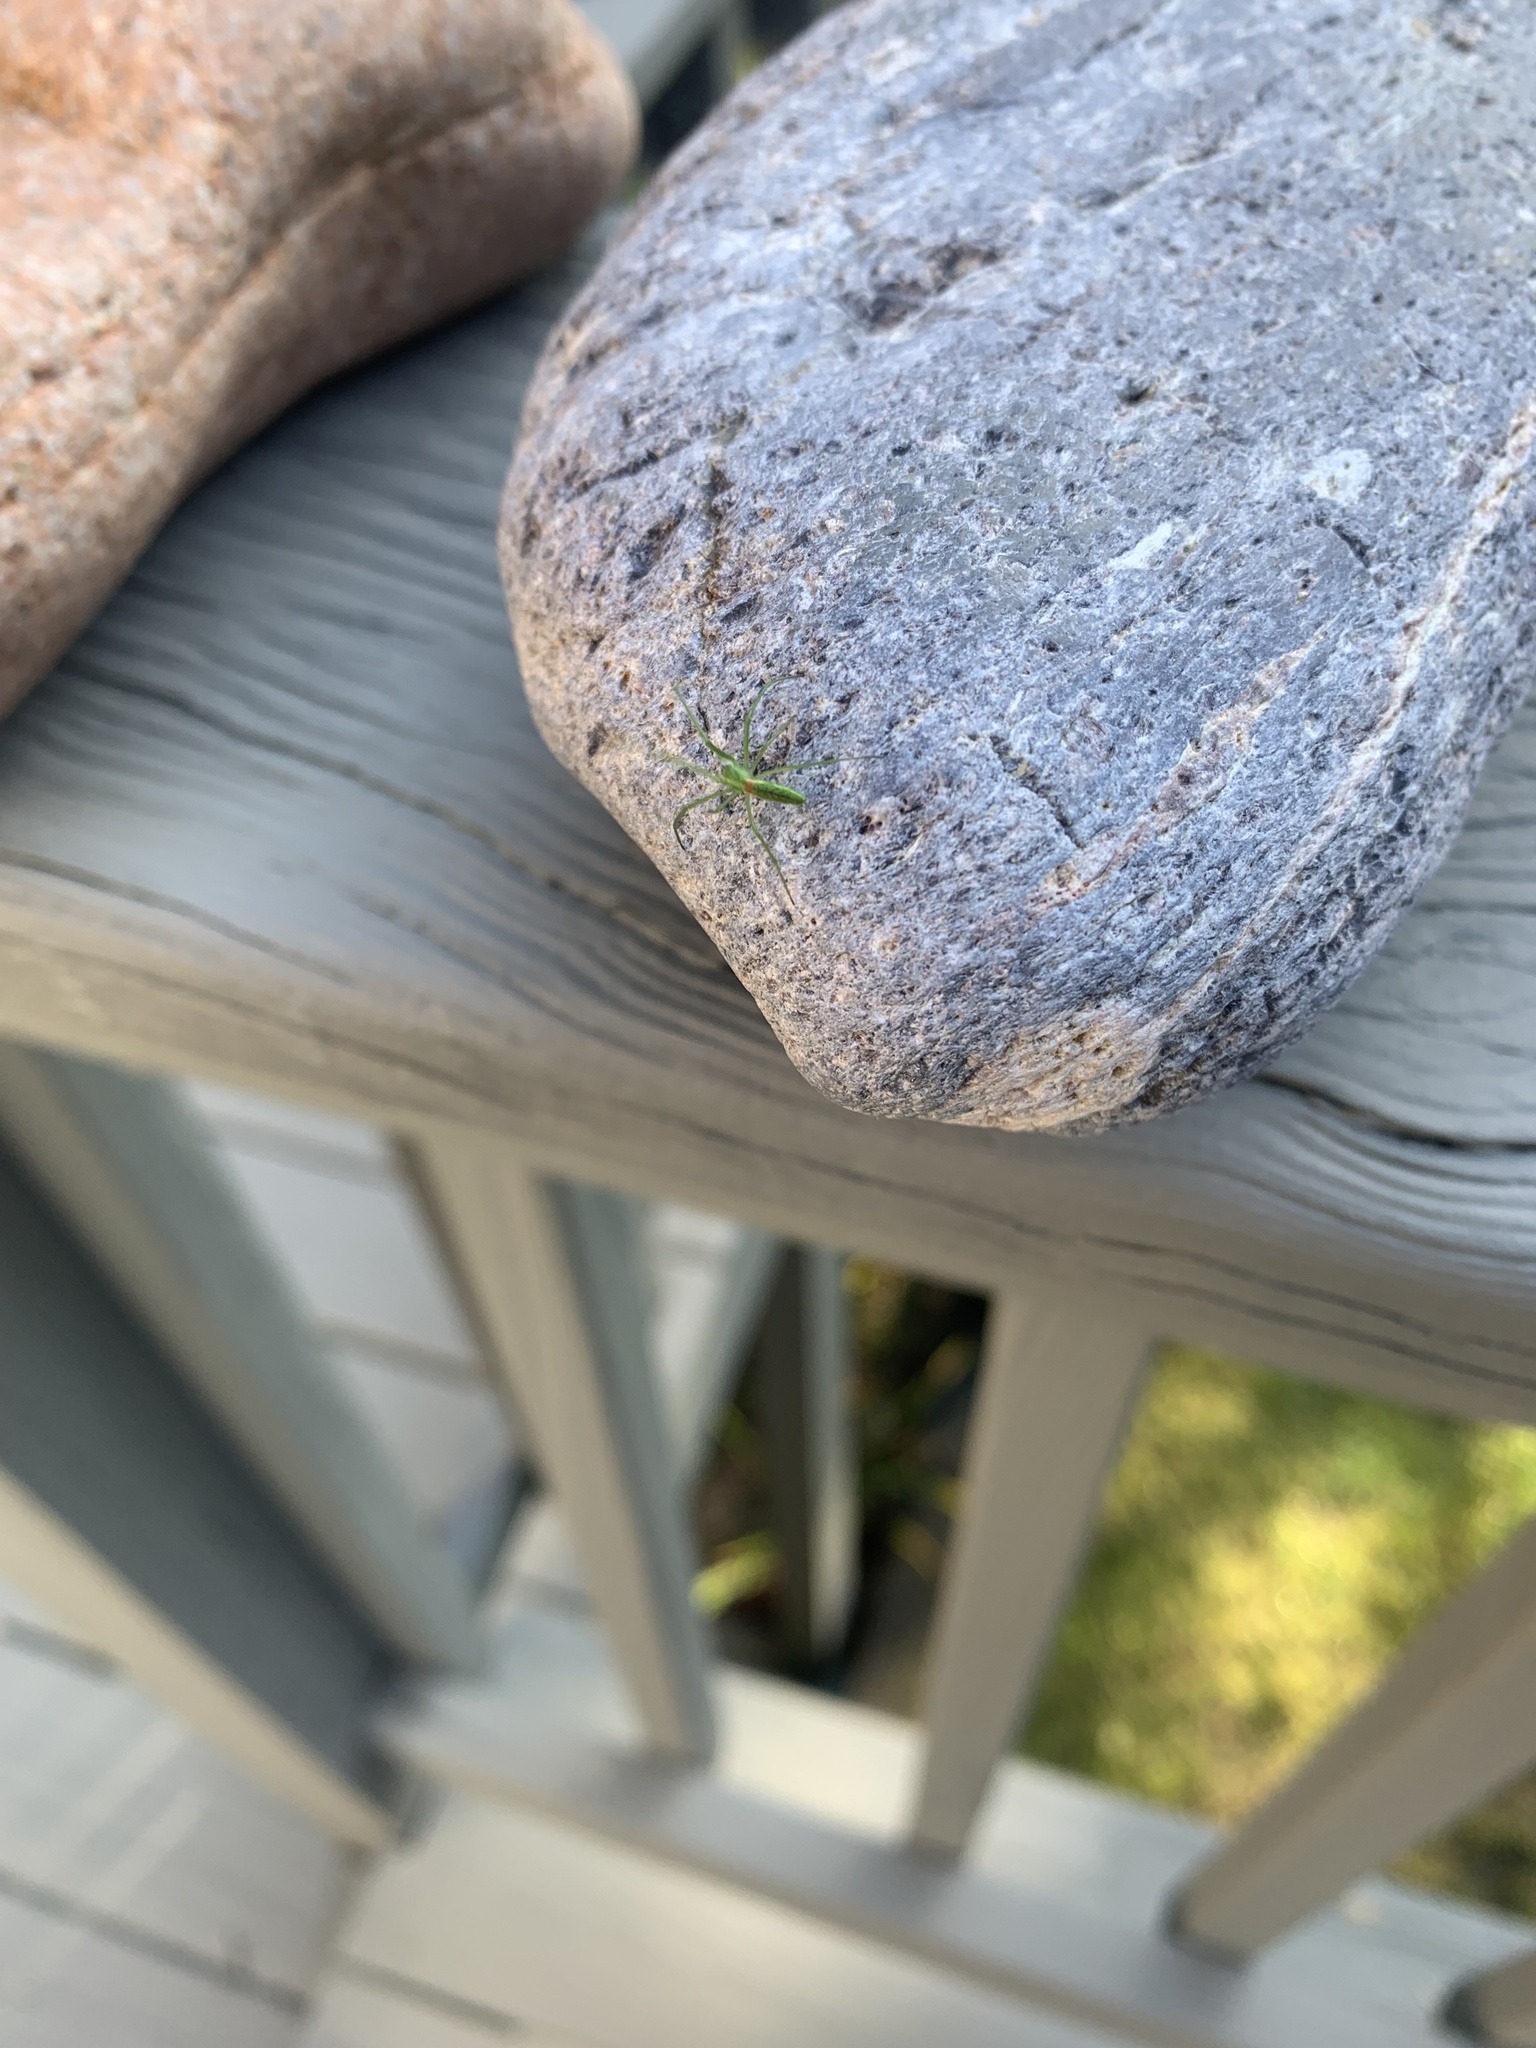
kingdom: Animalia
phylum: Arthropoda
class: Arachnida
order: Araneae
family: Tetragnathidae
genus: Tetragnatha
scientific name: Tetragnatha viridis
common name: Green long-jawed spider
